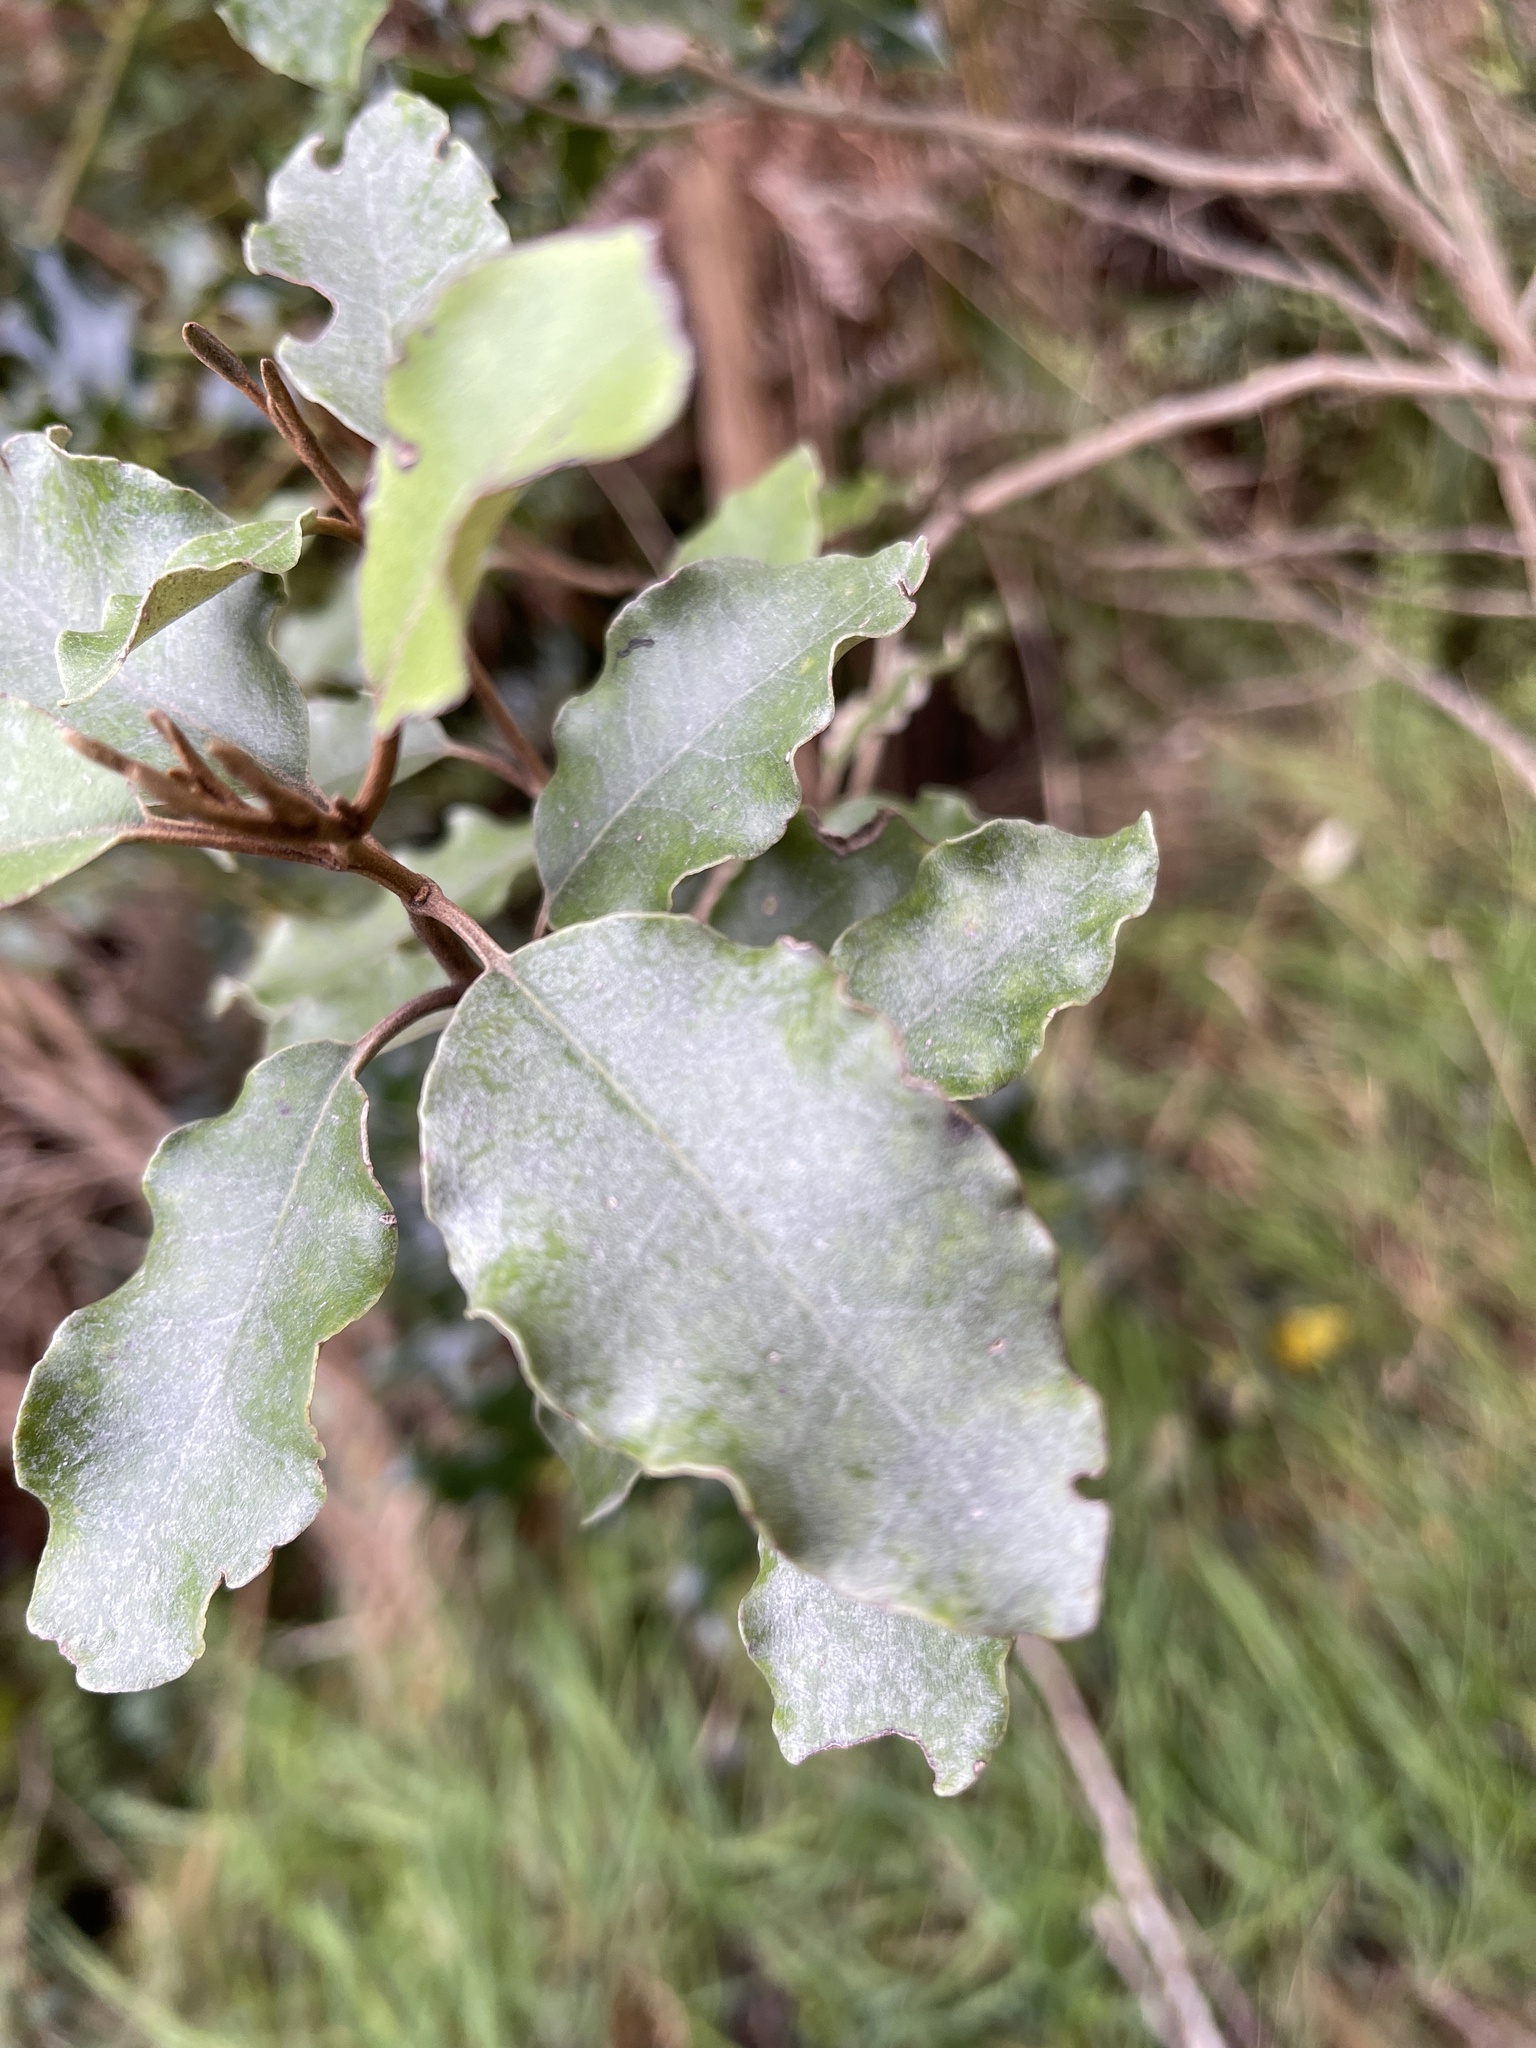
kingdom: Plantae
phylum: Tracheophyta
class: Magnoliopsida
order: Asterales
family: Asteraceae
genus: Olearia
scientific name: Olearia paniculata
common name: Akiraho
